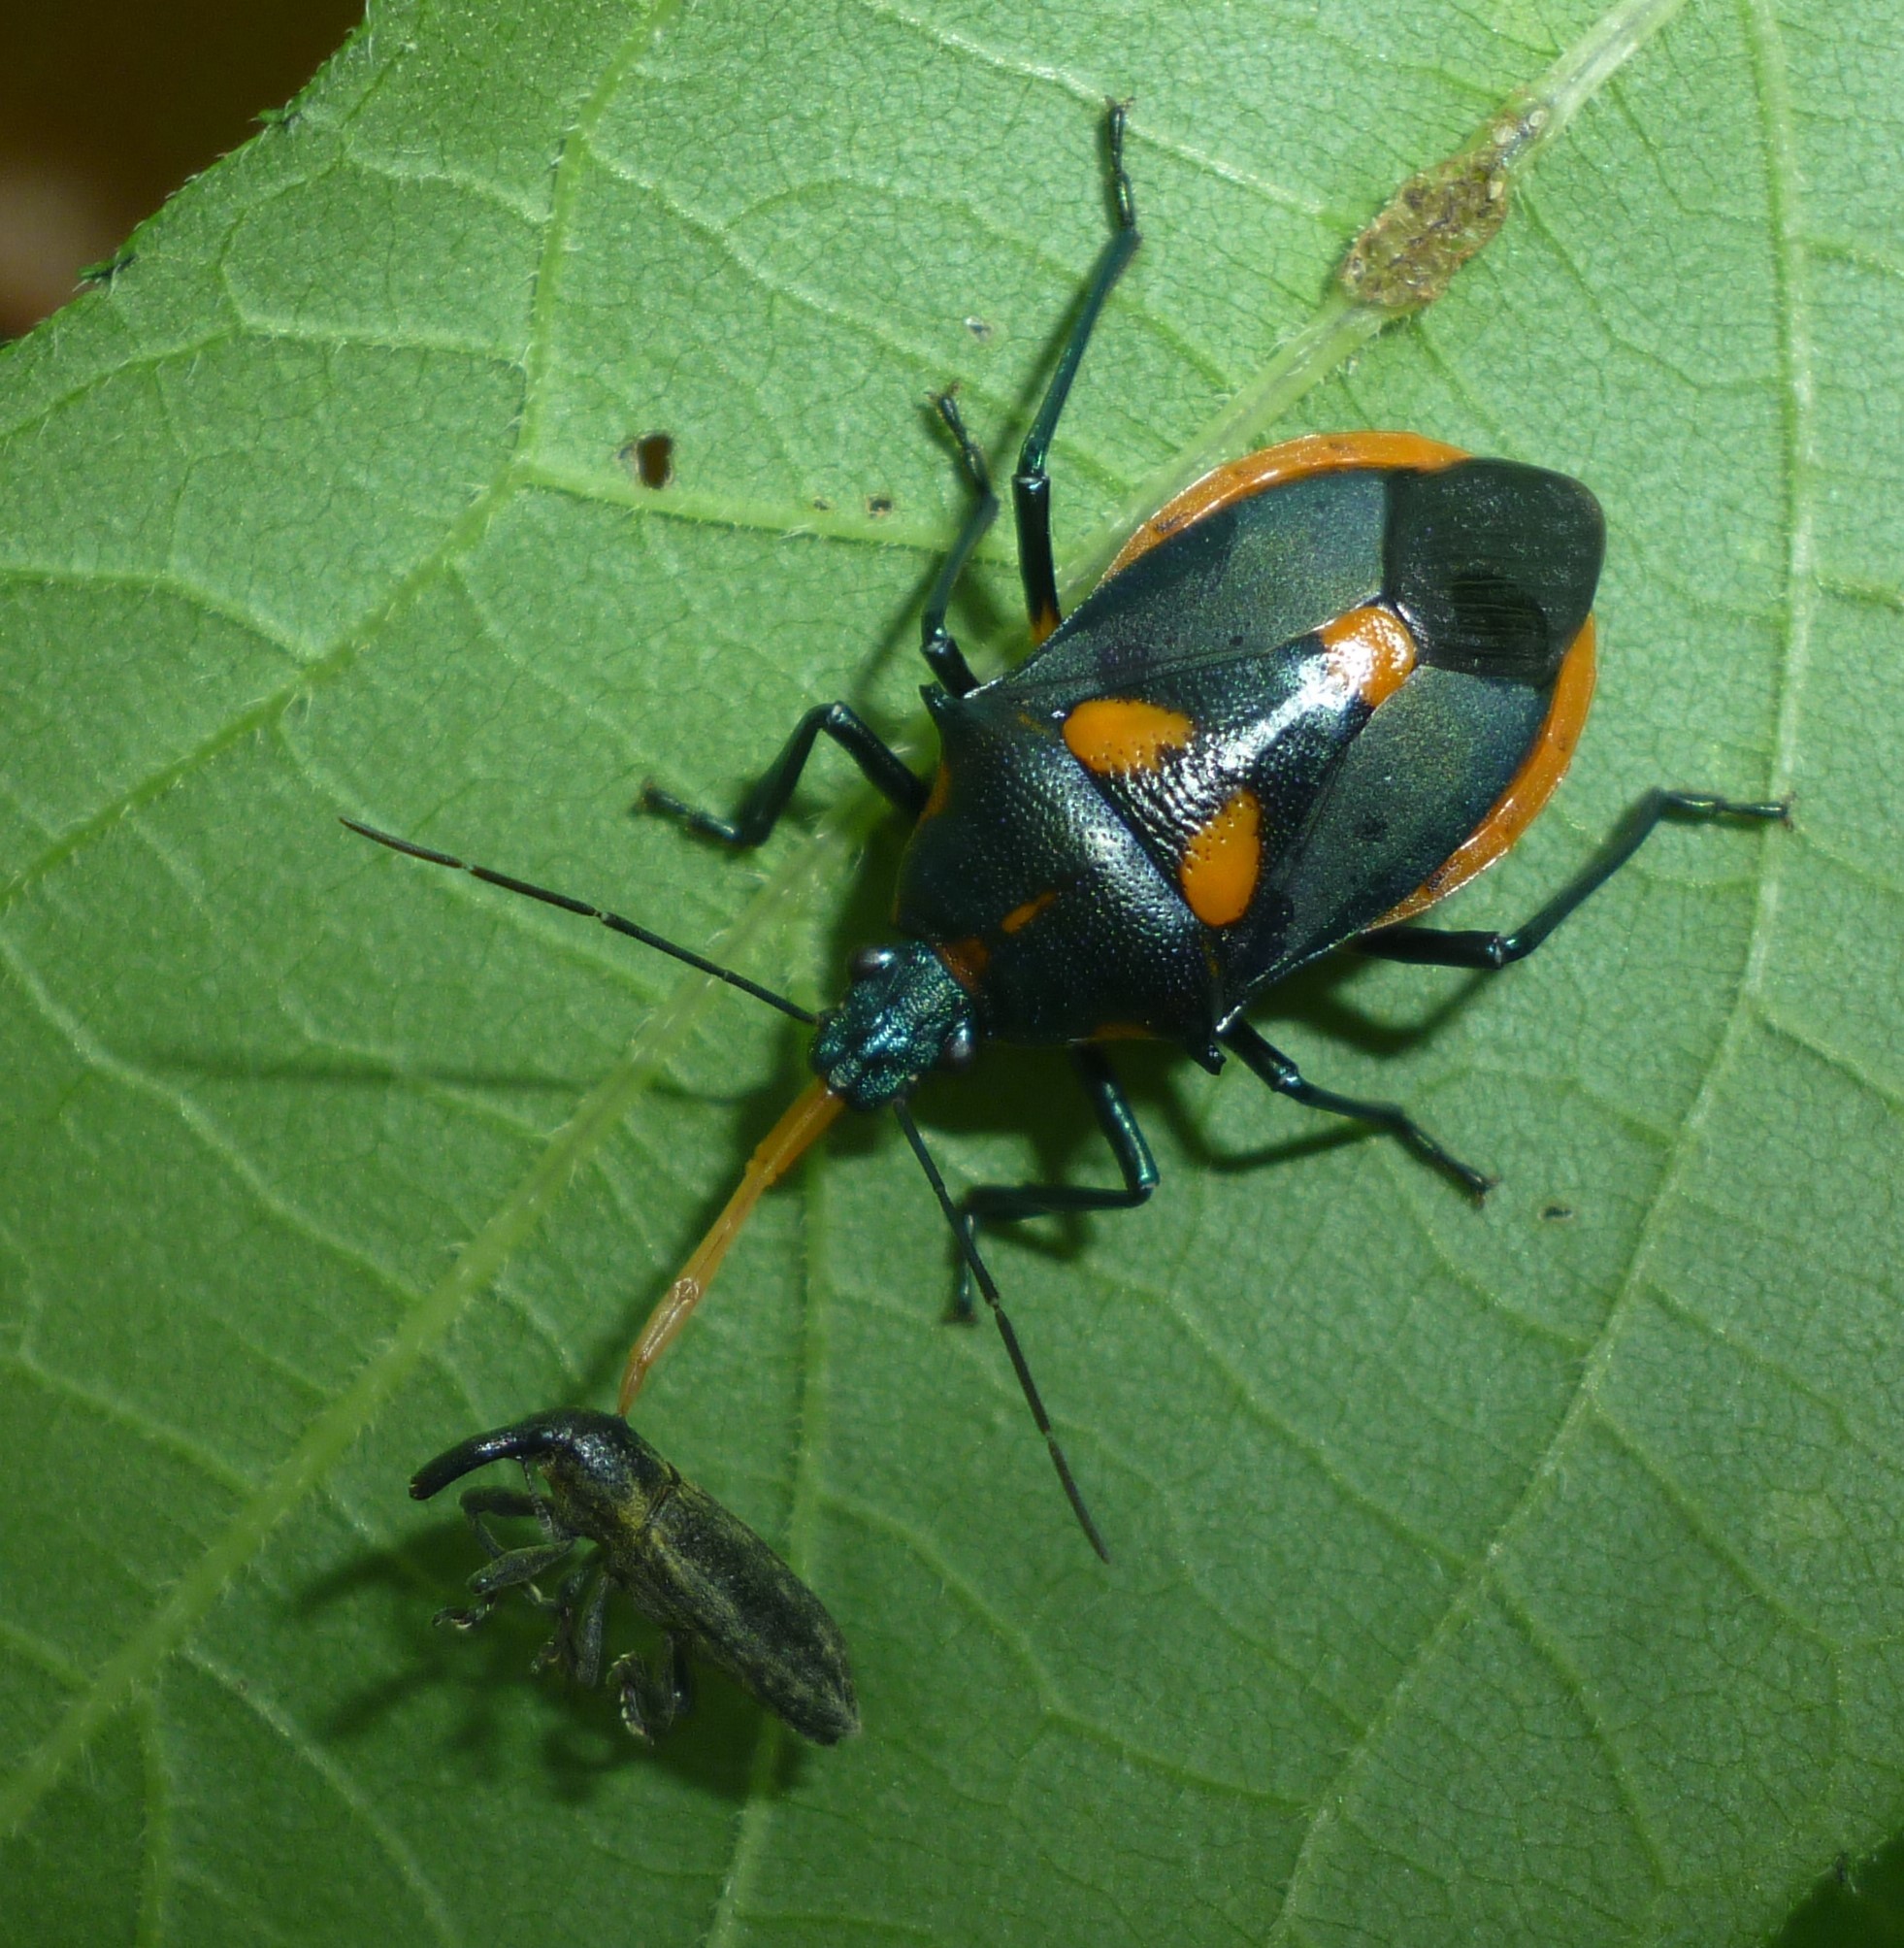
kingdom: Animalia
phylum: Arthropoda
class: Insecta
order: Hemiptera
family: Pentatomidae
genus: Euthyrhynchus
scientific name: Euthyrhynchus floridanus
